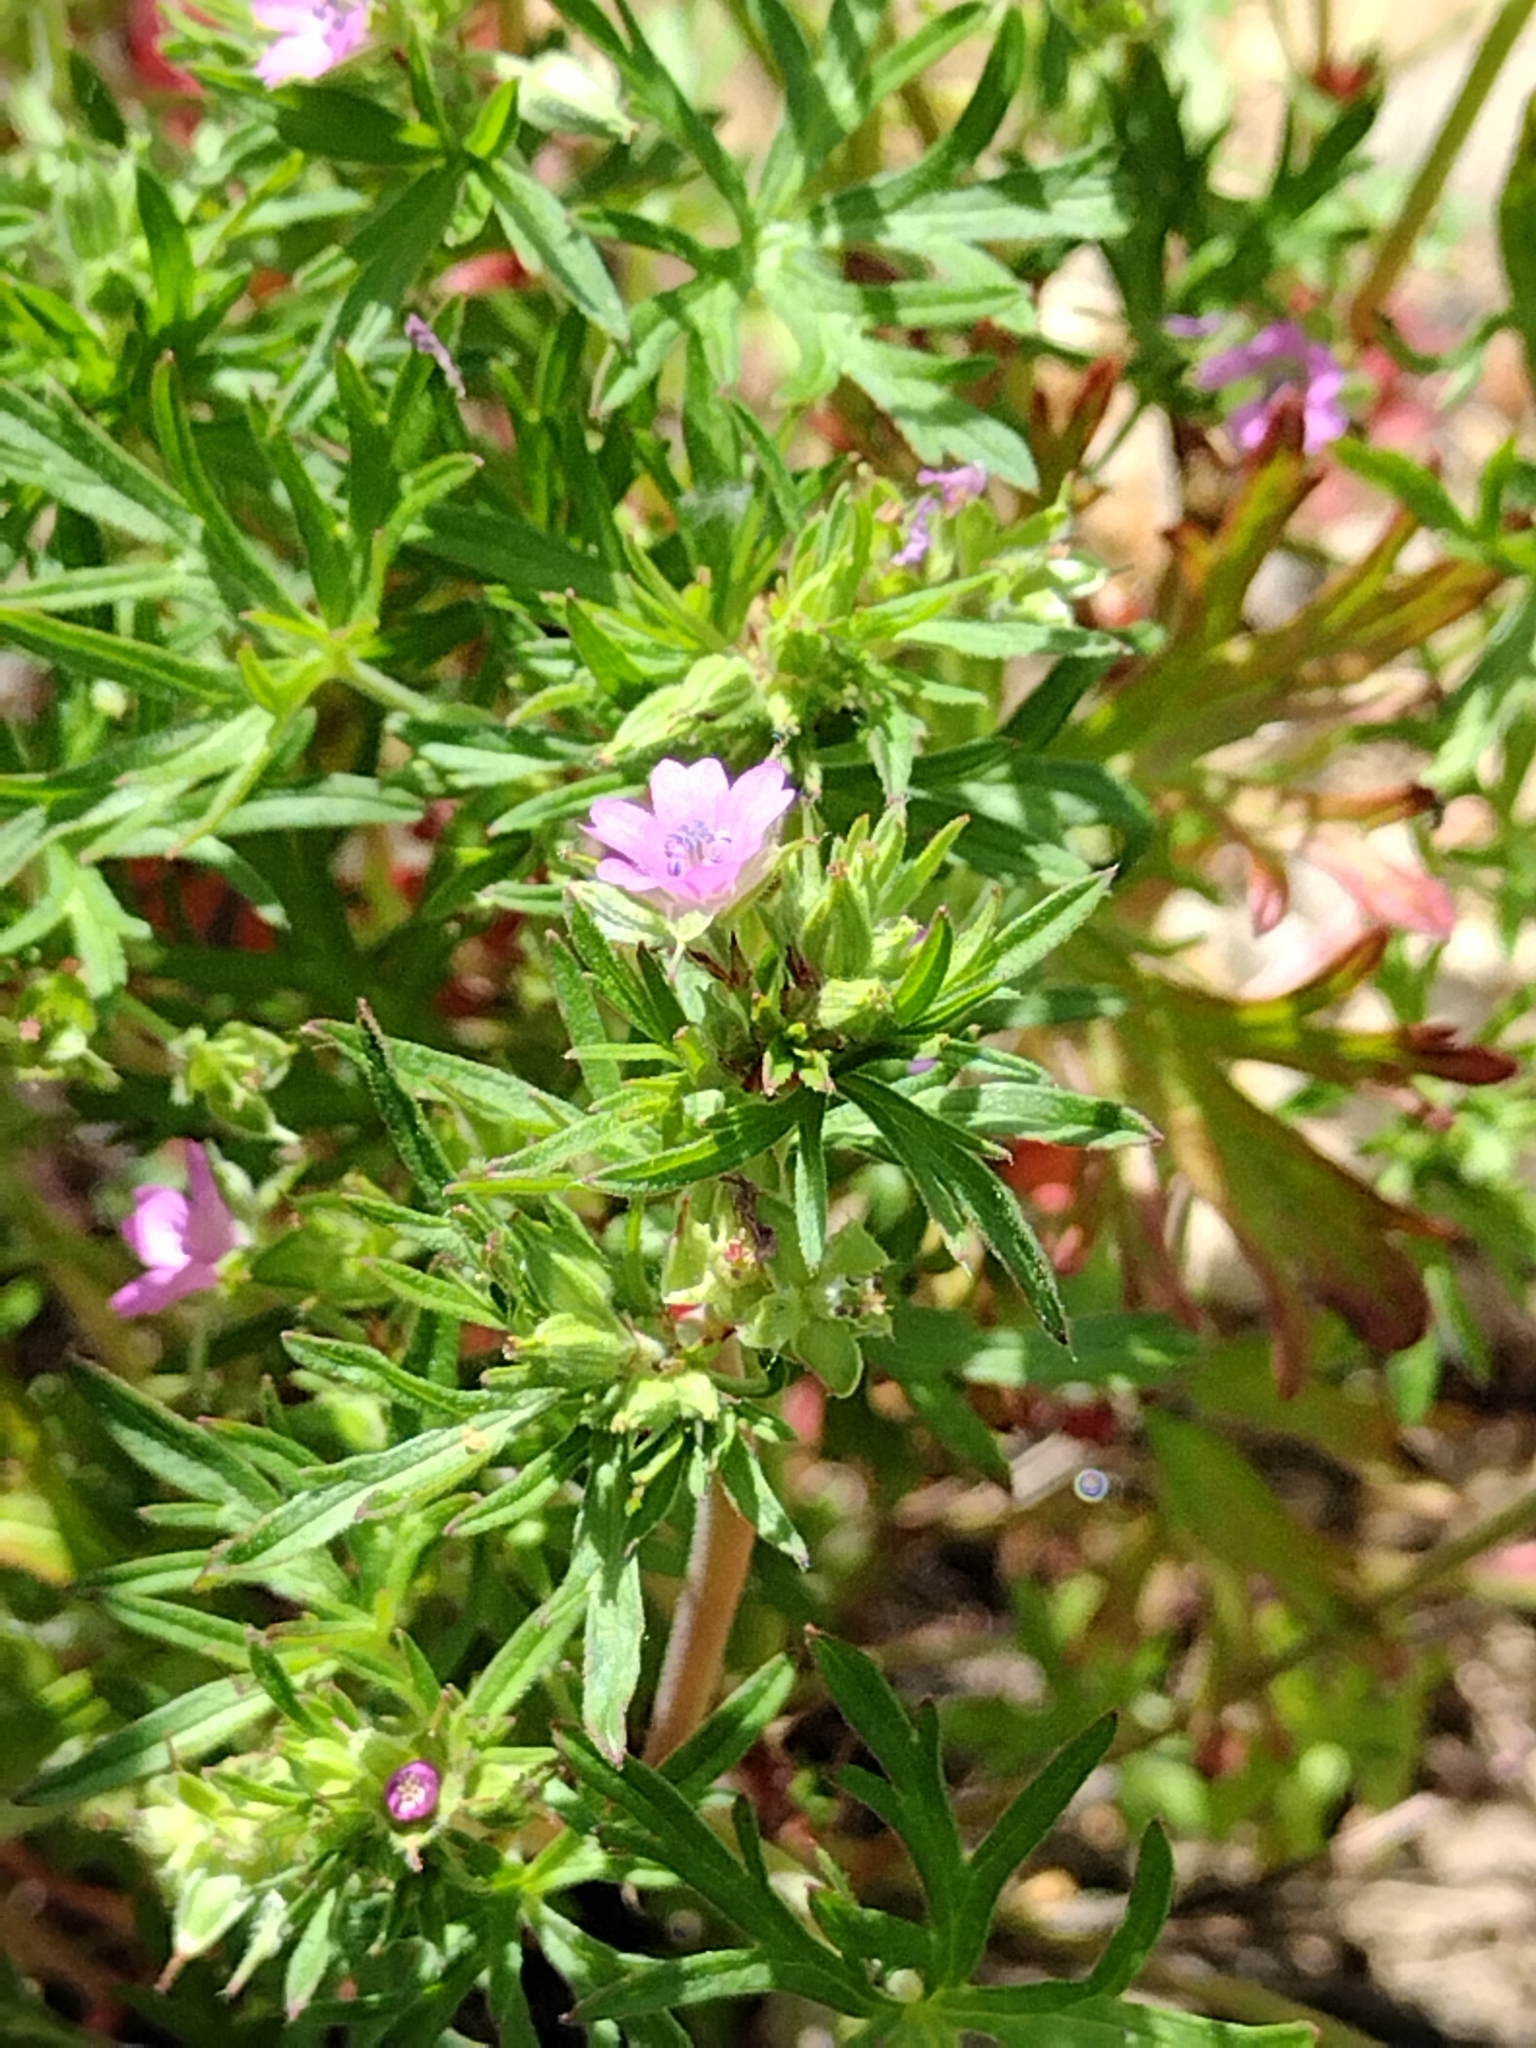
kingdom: Plantae
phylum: Tracheophyta
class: Magnoliopsida
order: Geraniales
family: Geraniaceae
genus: Geranium
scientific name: Geranium dissectum
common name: Cut-leaved crane's-bill
